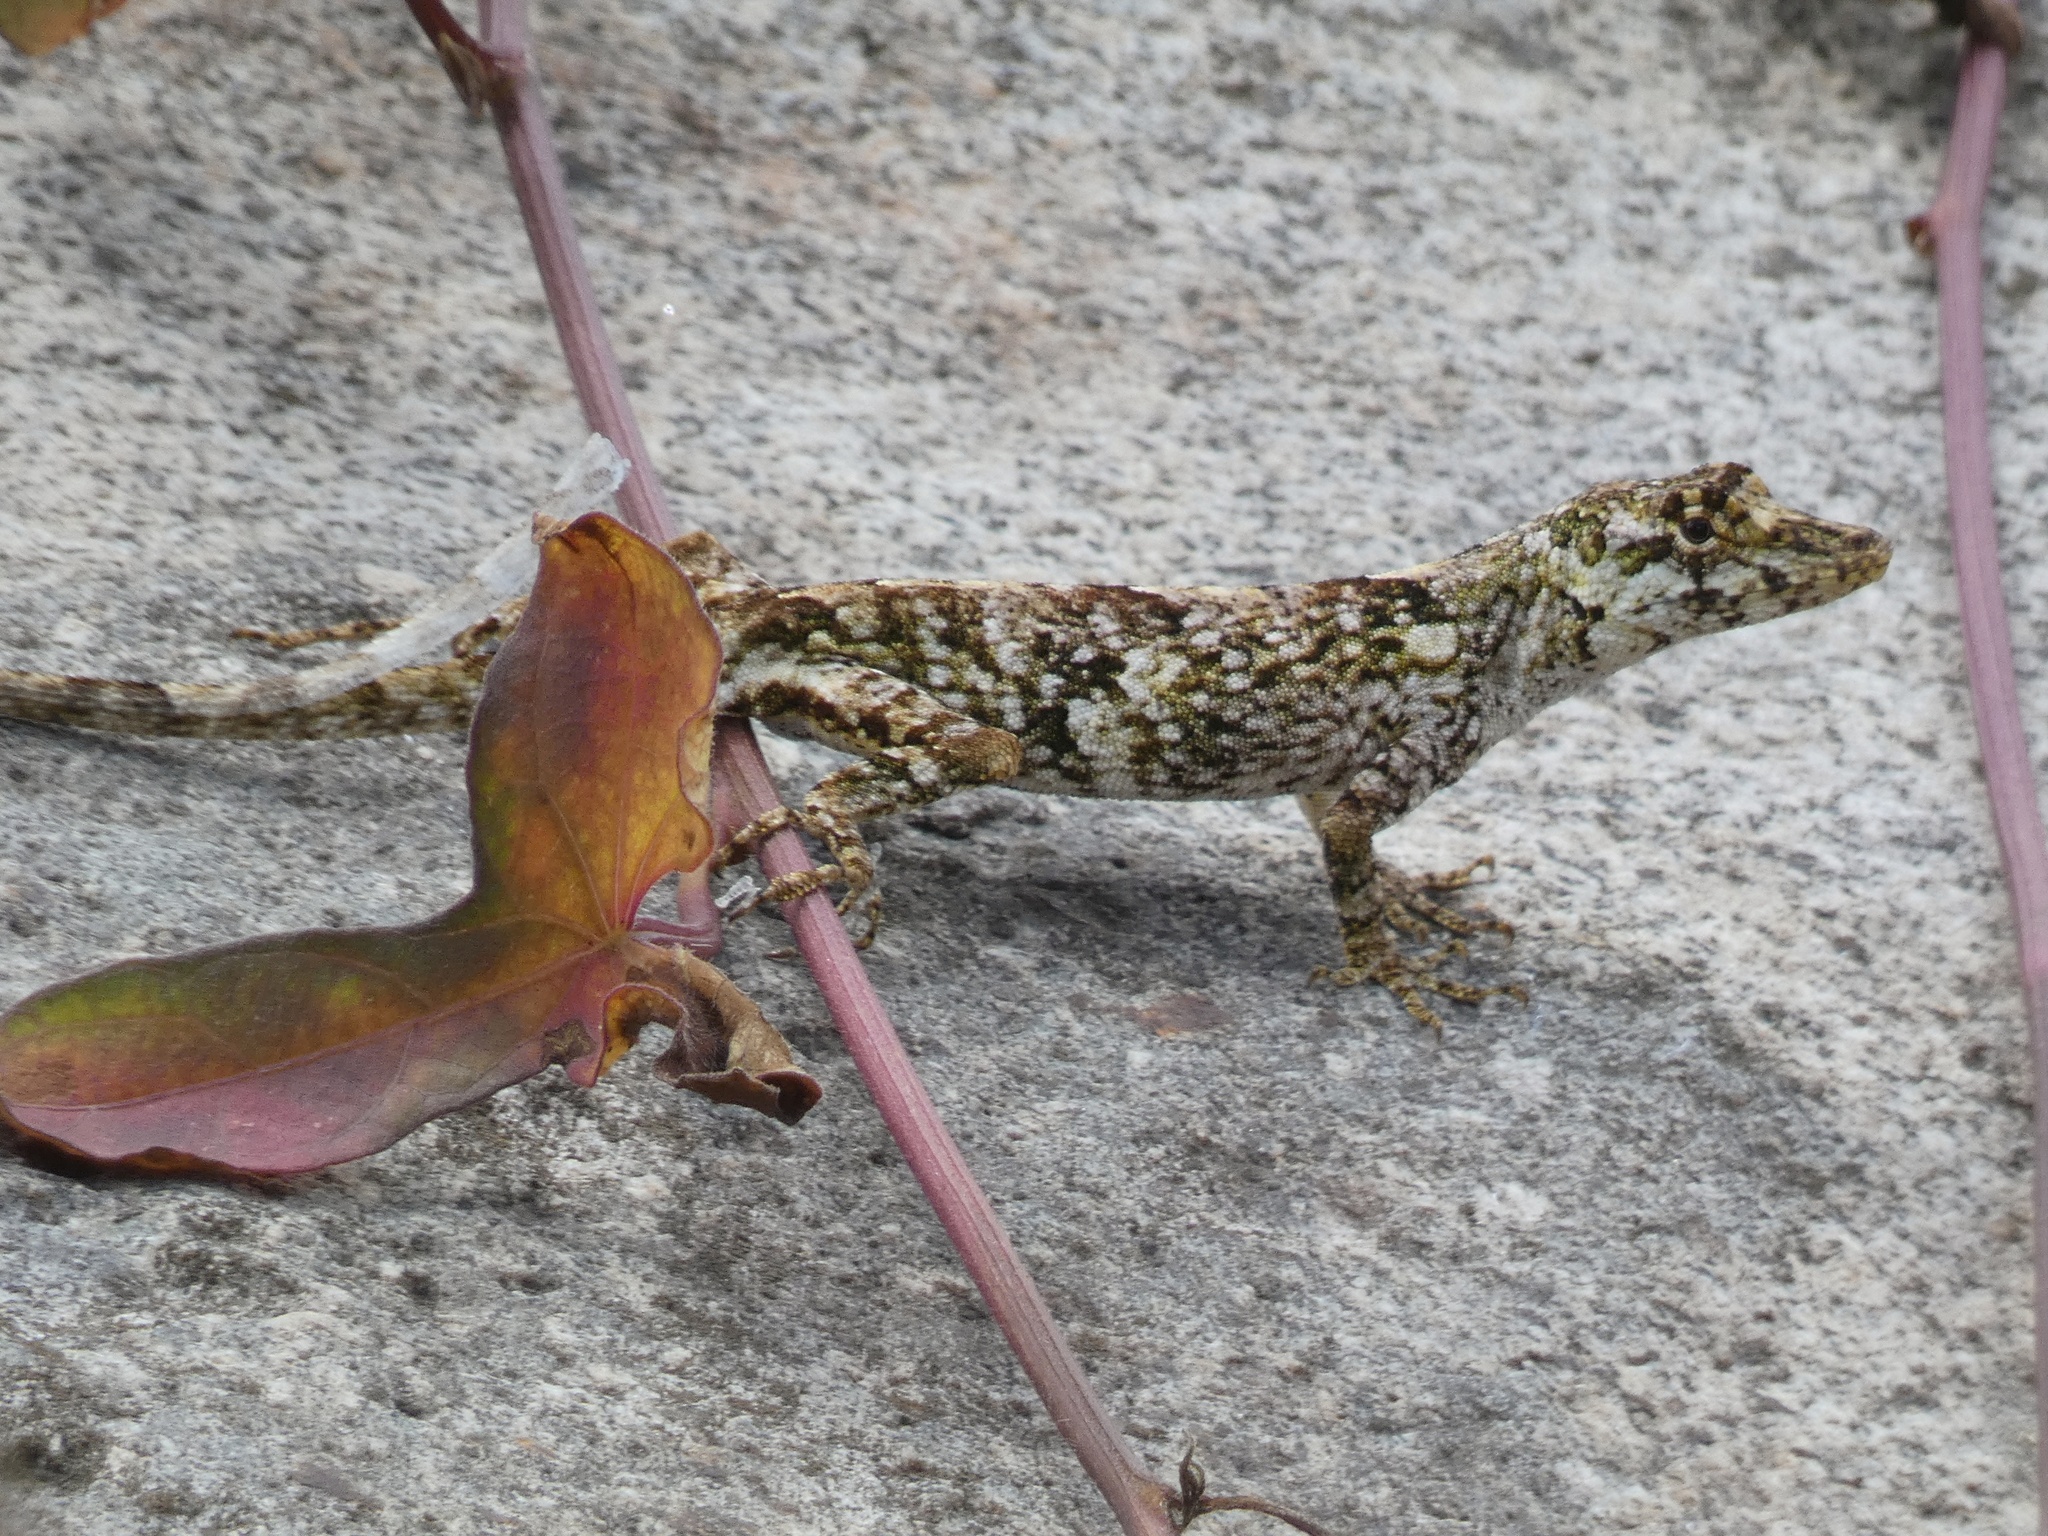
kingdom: Animalia
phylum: Chordata
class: Squamata
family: Dactyloidae
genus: Anolis
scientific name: Anolis salvini
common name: Salvin's anole
